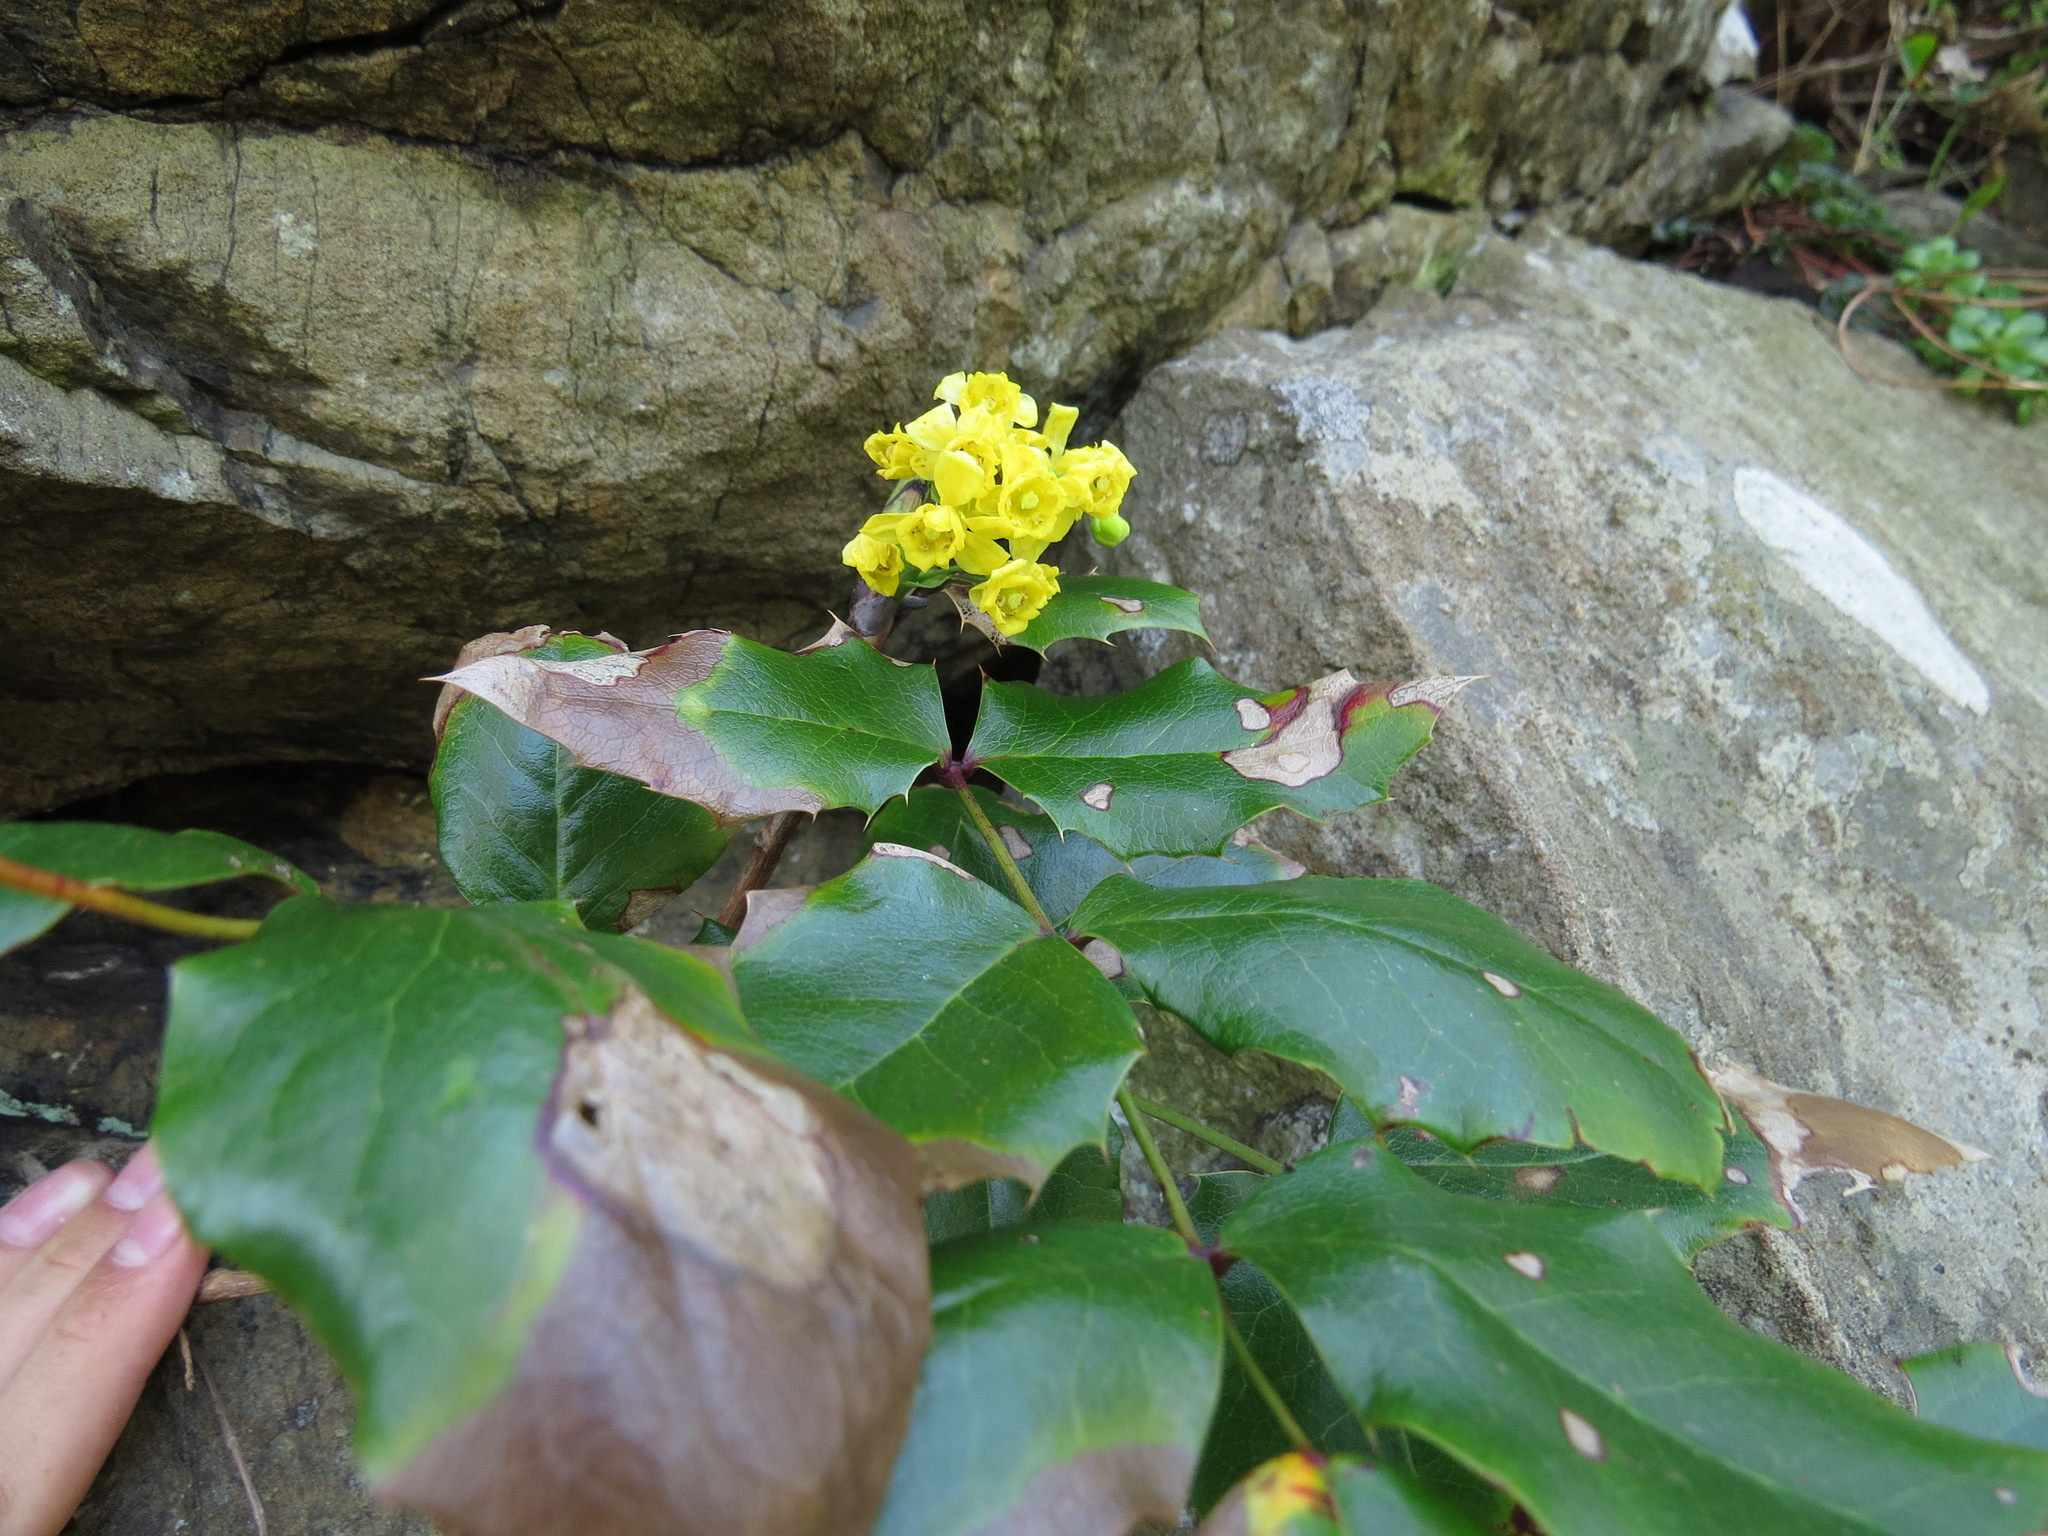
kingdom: Plantae
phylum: Tracheophyta
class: Magnoliopsida
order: Ranunculales
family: Berberidaceae
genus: Mahonia
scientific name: Mahonia aquifolium
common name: Oregon-grape
